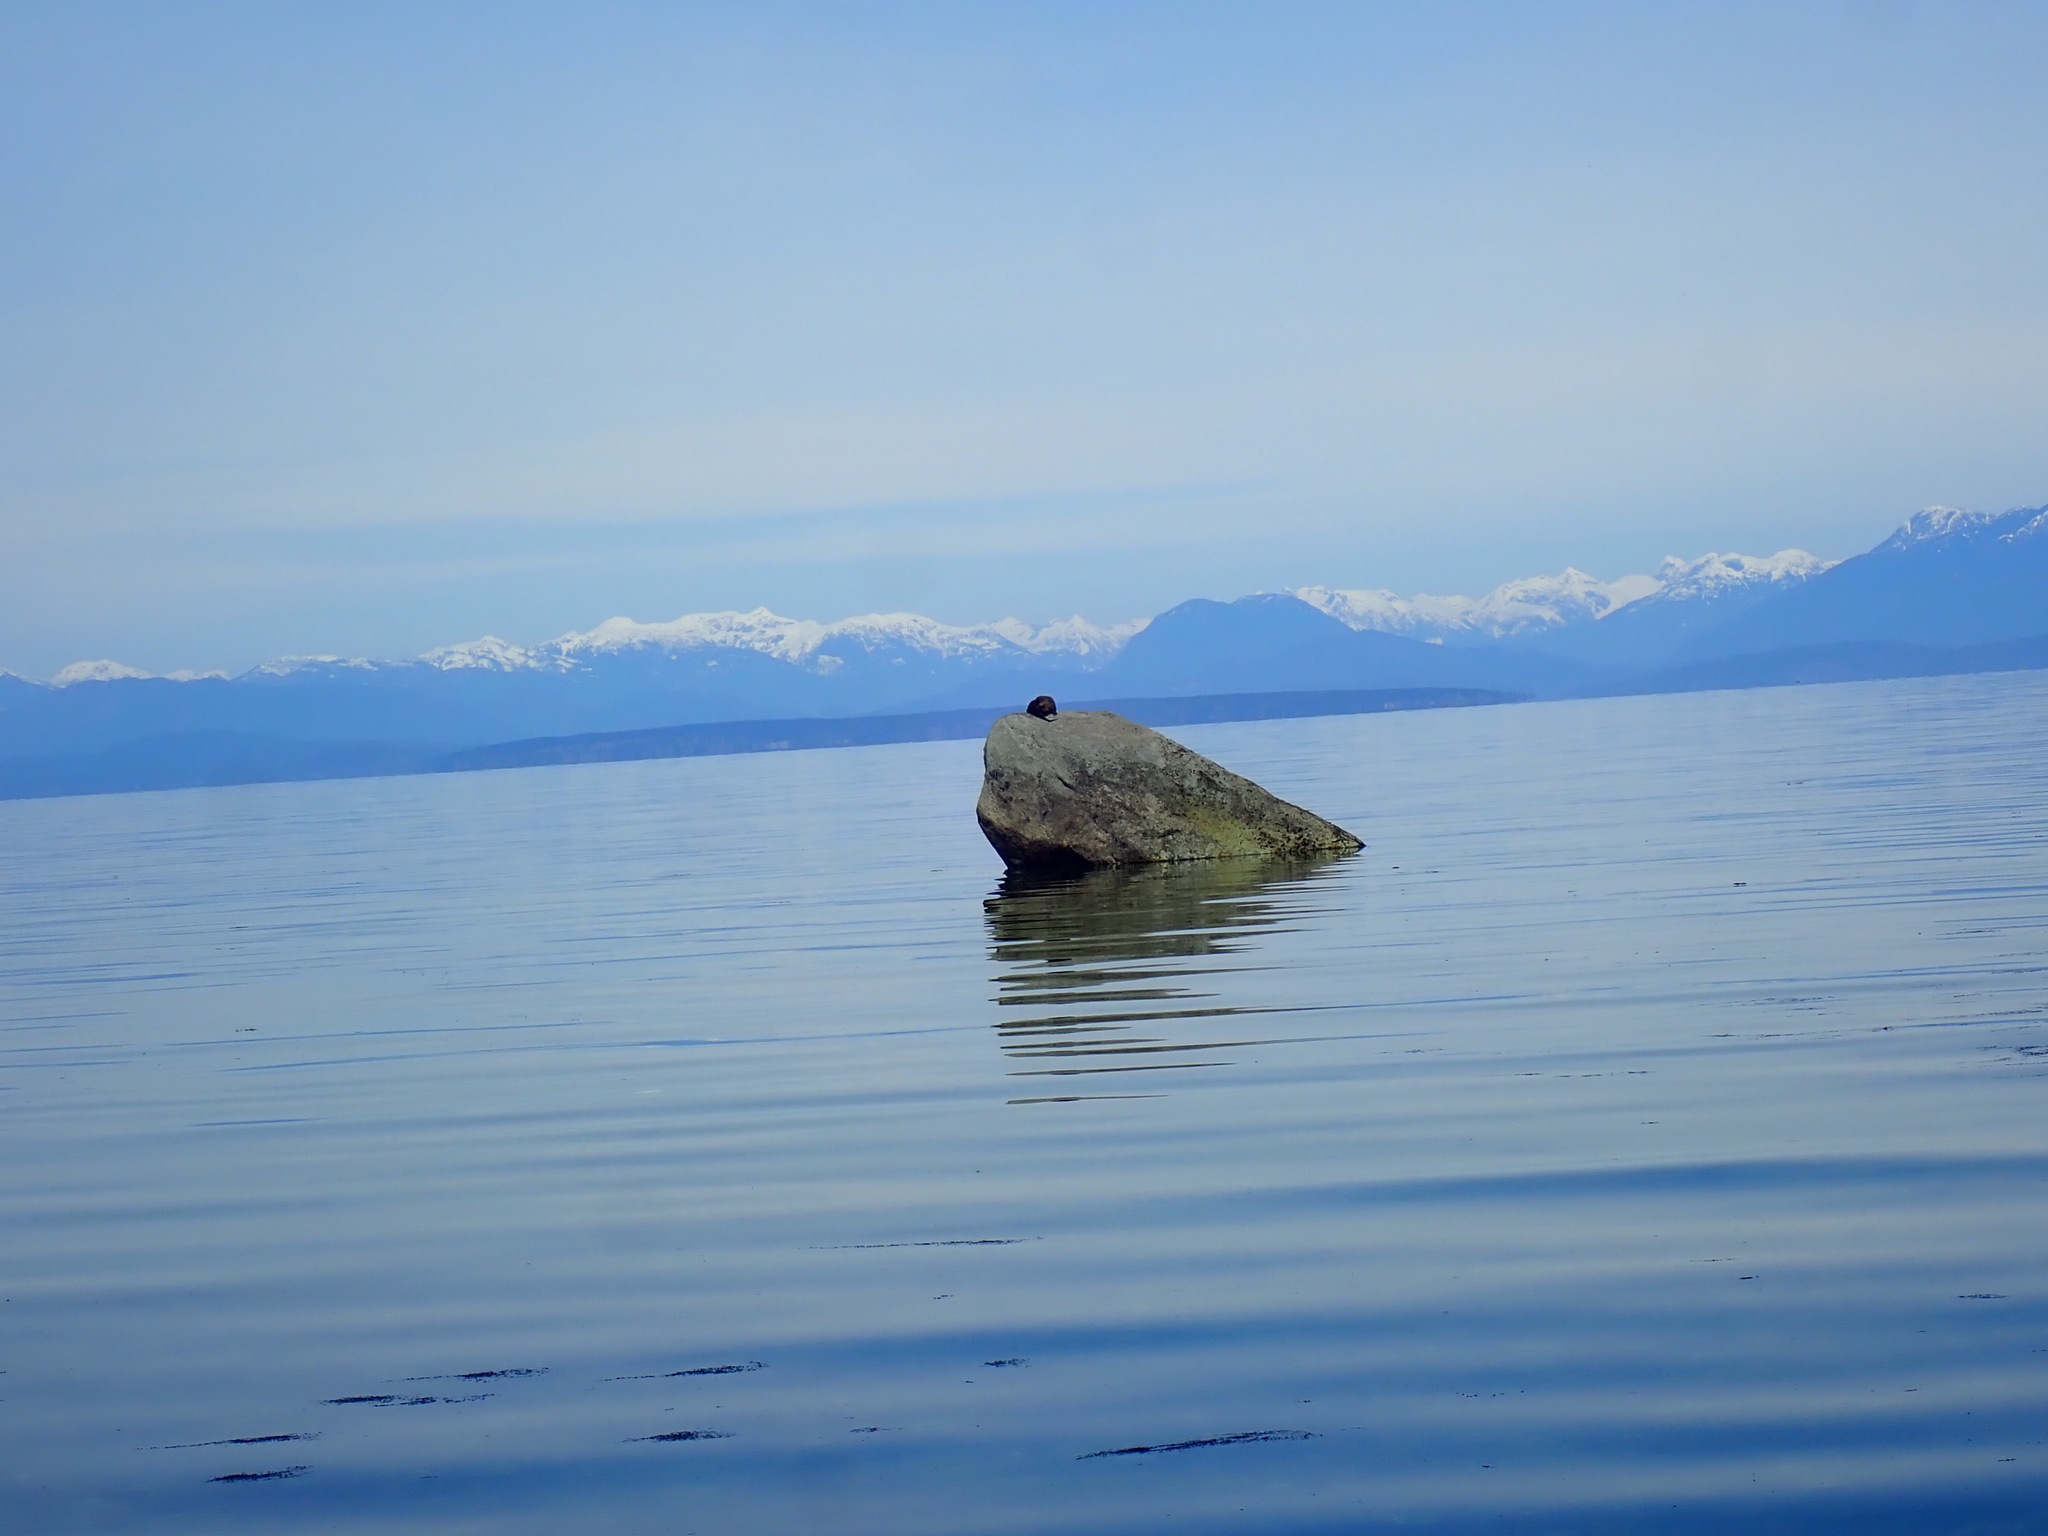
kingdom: Animalia
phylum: Chordata
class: Mammalia
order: Carnivora
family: Mustelidae
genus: Lontra
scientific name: Lontra canadensis
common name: North american river otter
